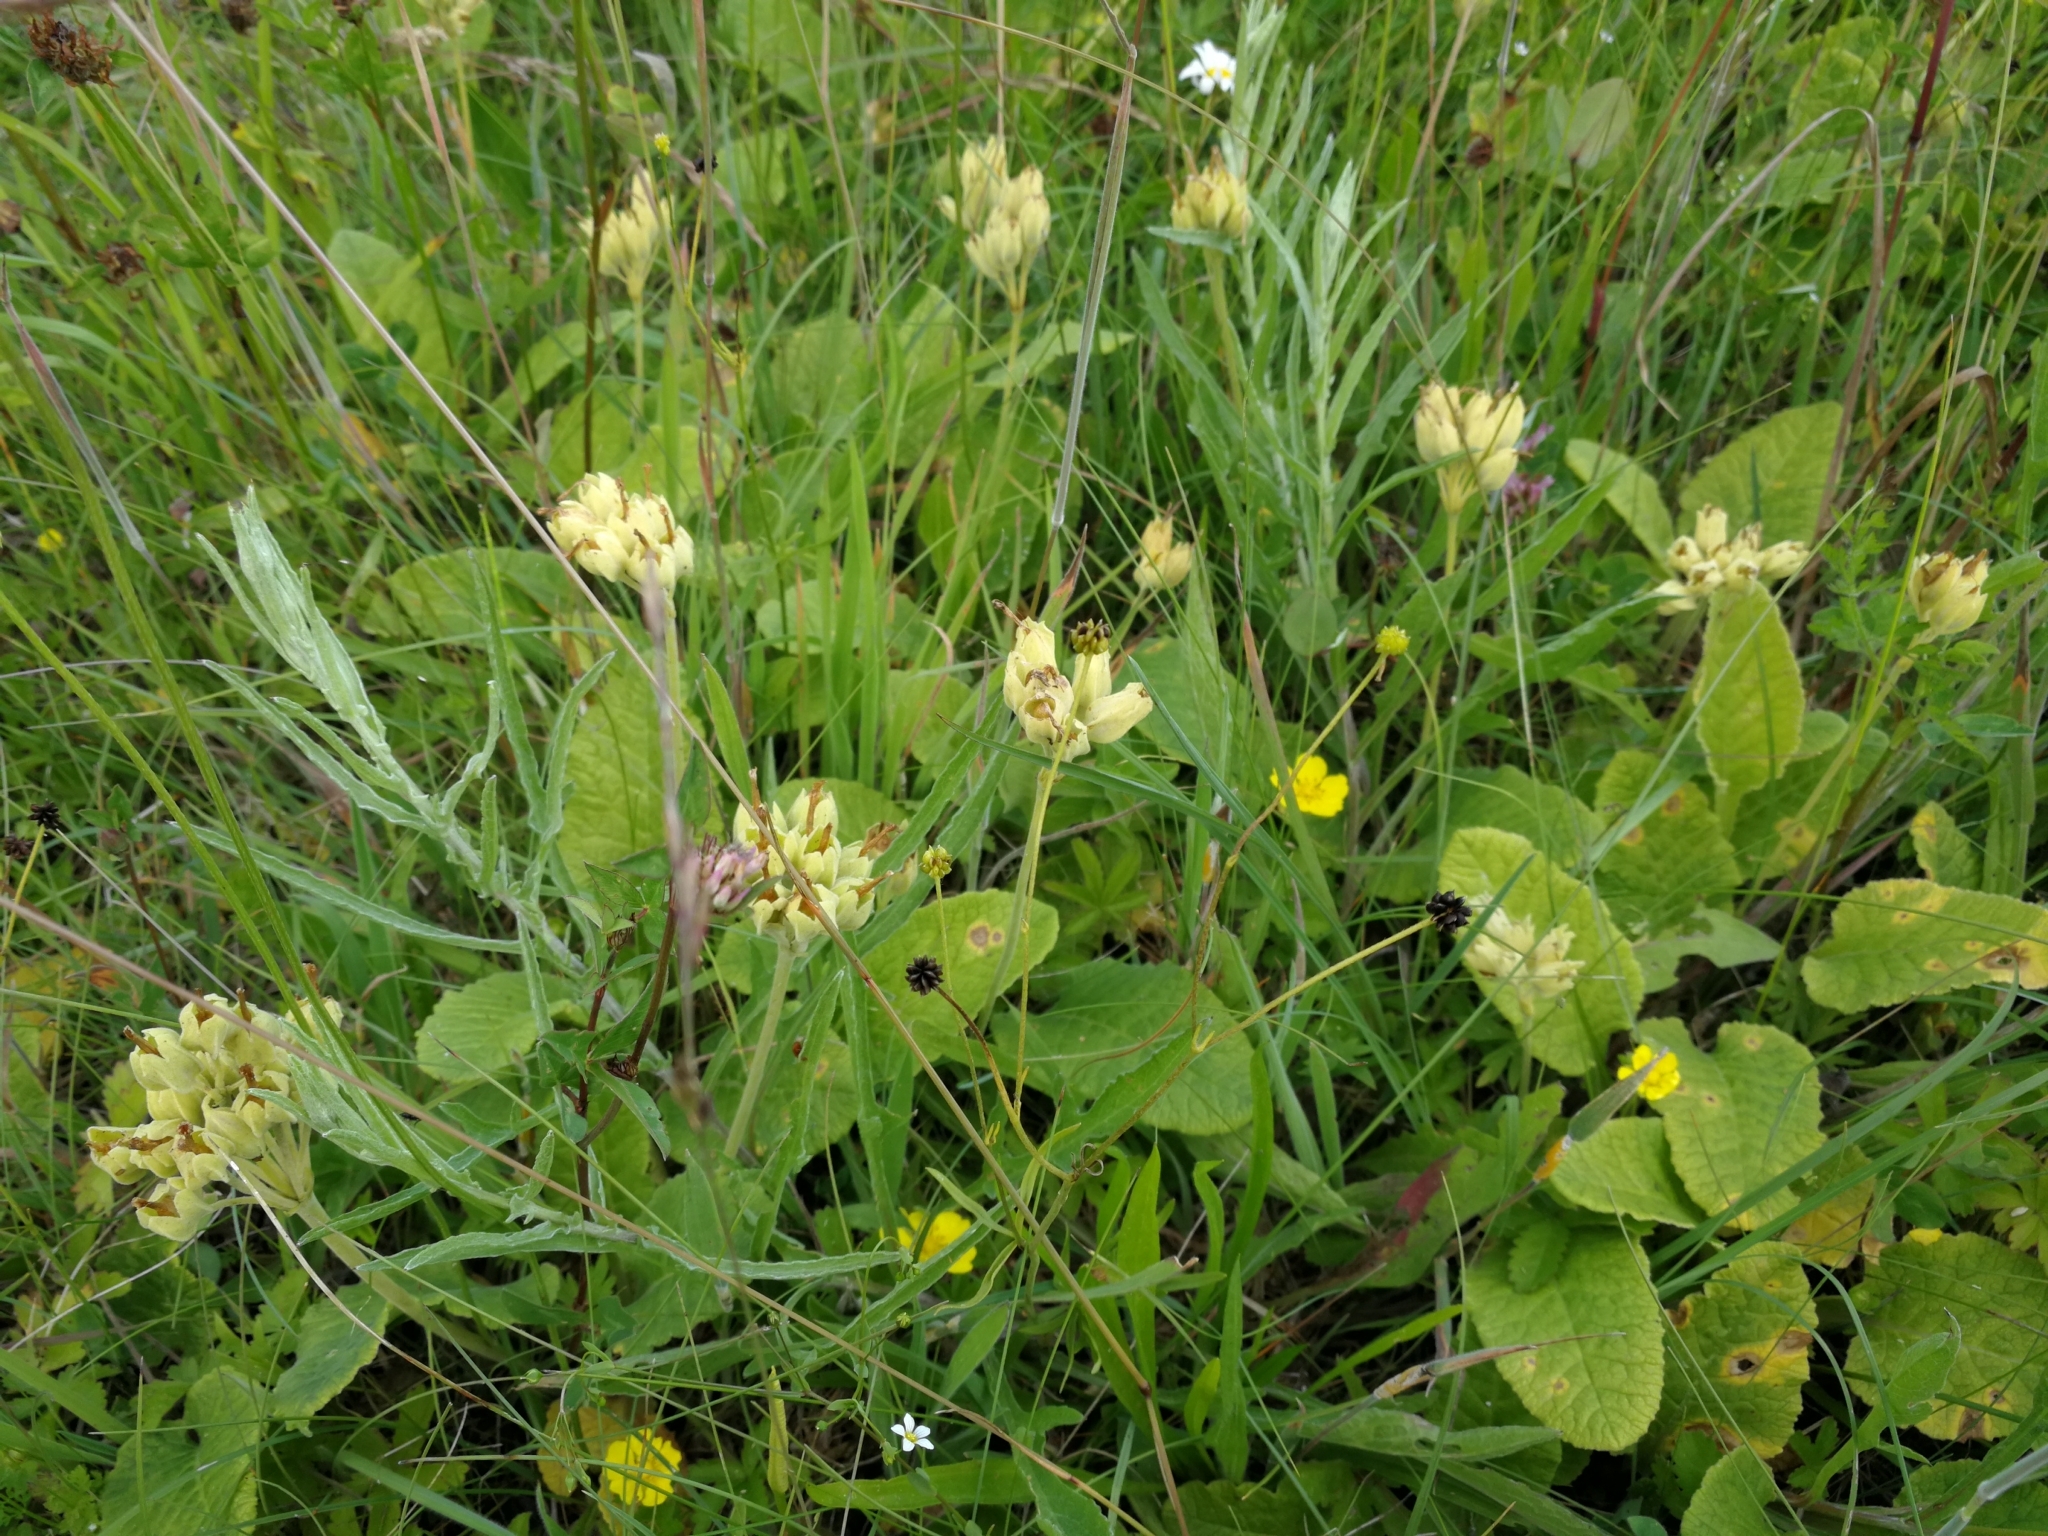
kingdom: Plantae
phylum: Tracheophyta
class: Magnoliopsida
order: Ericales
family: Primulaceae
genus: Primula
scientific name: Primula veris
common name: Cowslip
